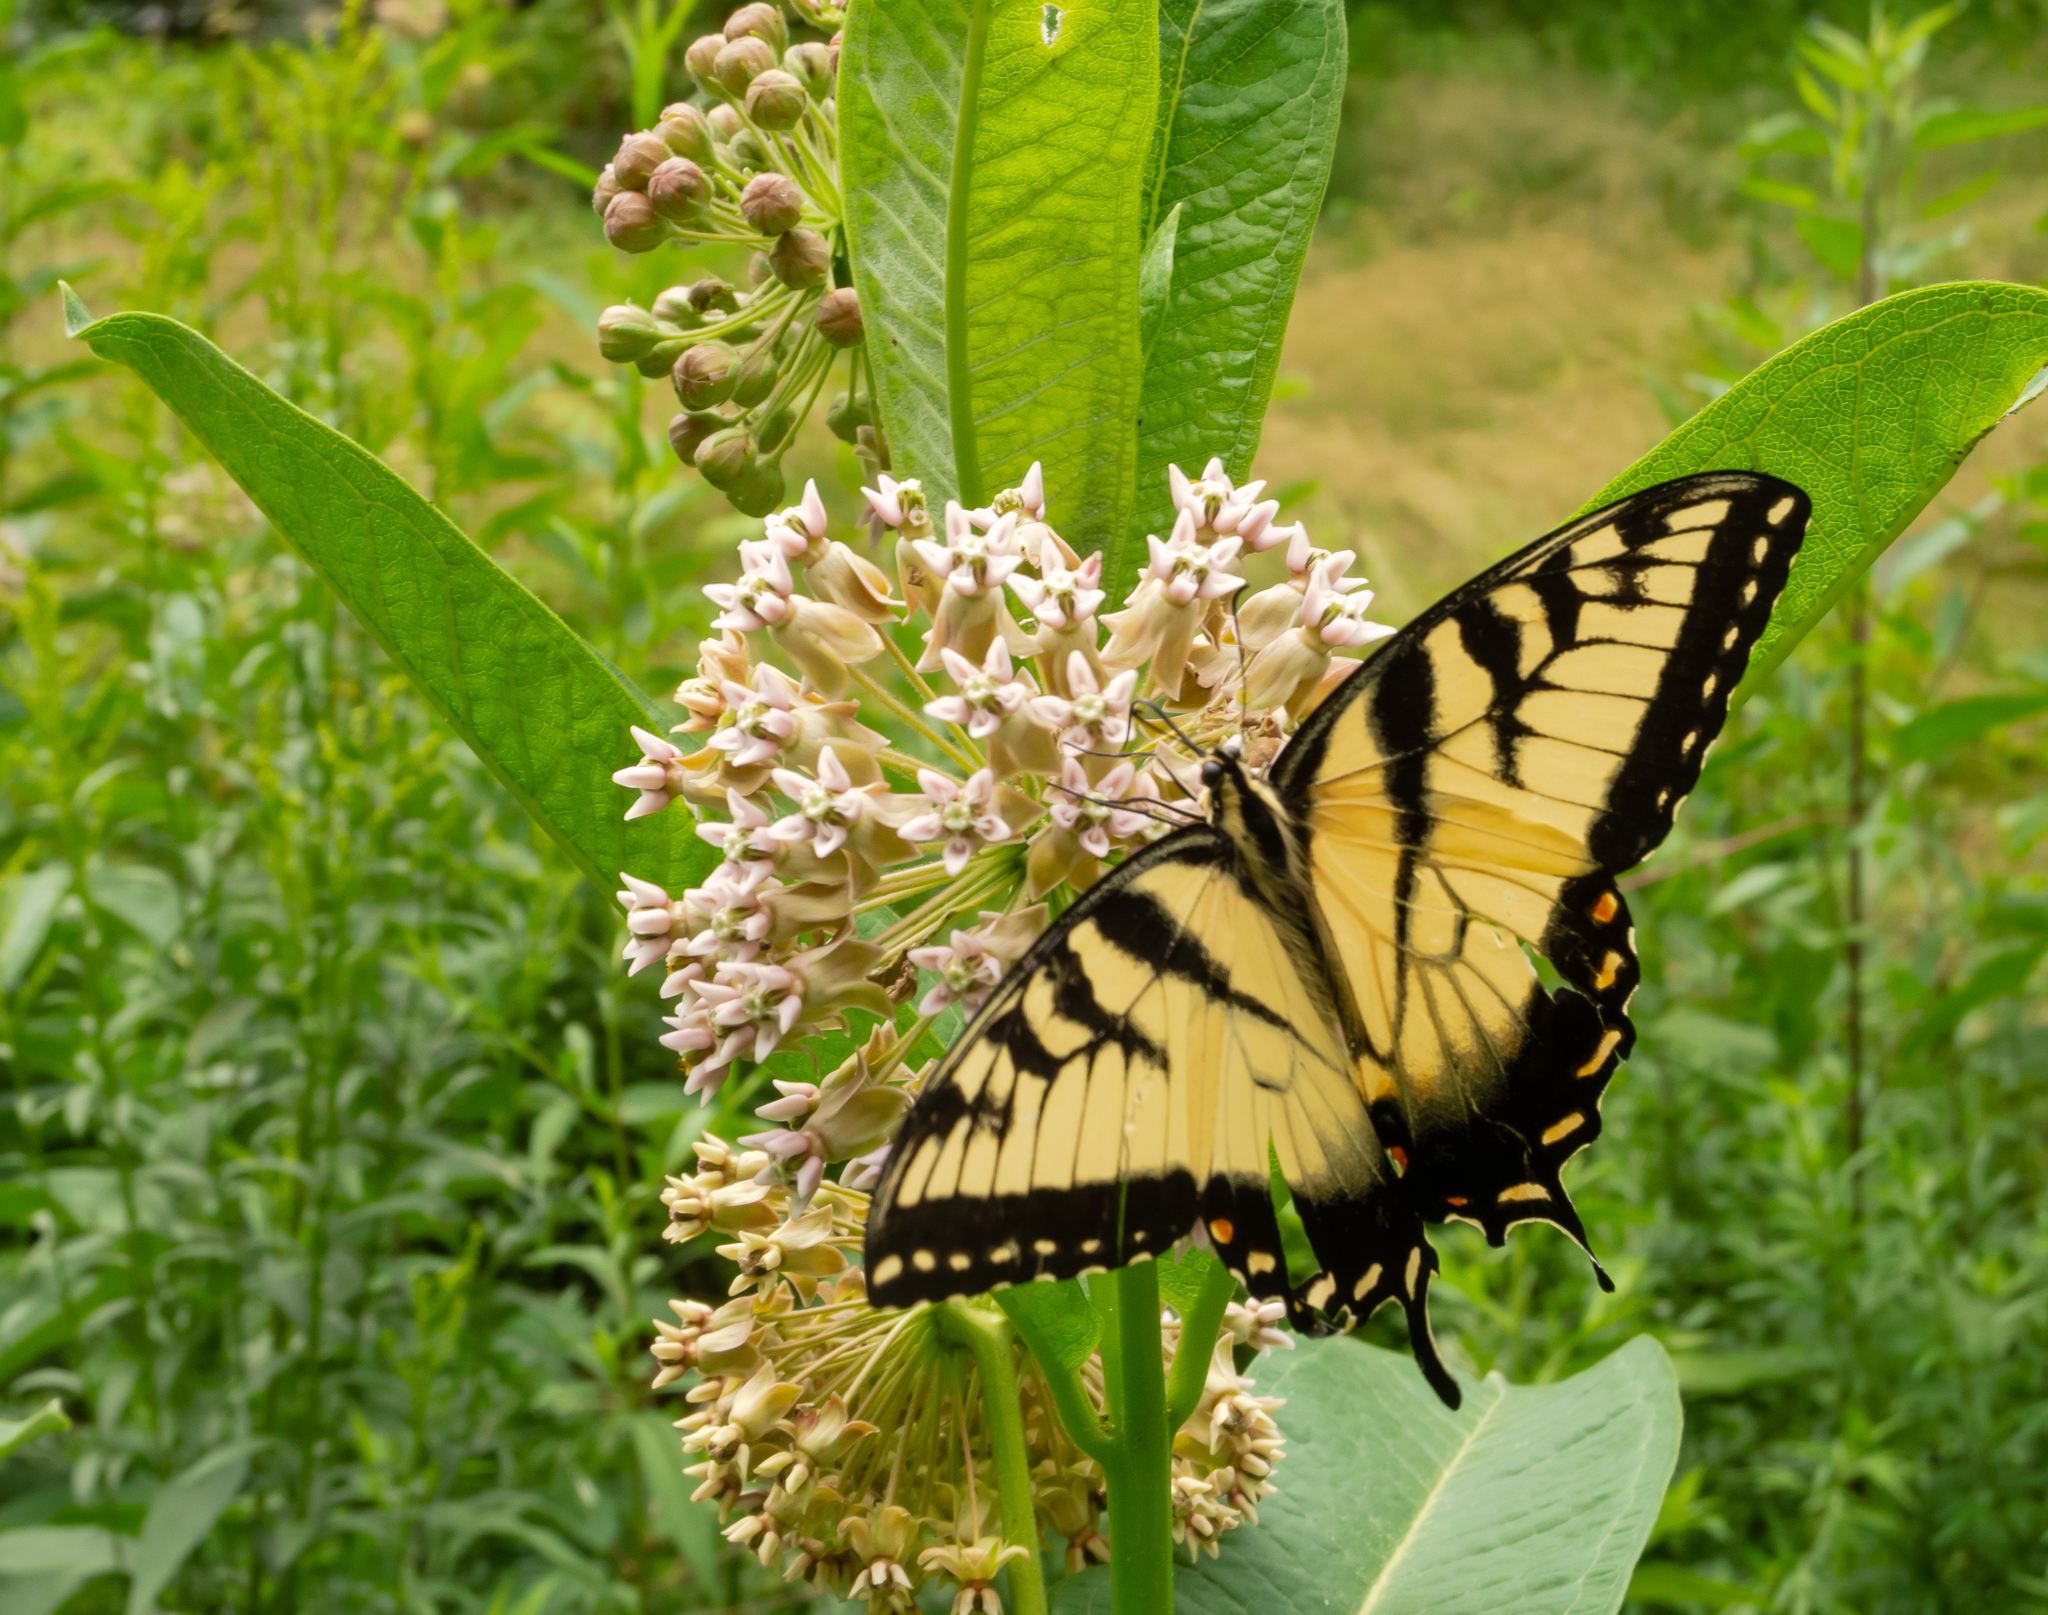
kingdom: Animalia
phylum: Arthropoda
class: Insecta
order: Lepidoptera
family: Papilionidae
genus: Papilio
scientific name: Papilio glaucus
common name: Tiger swallowtail
